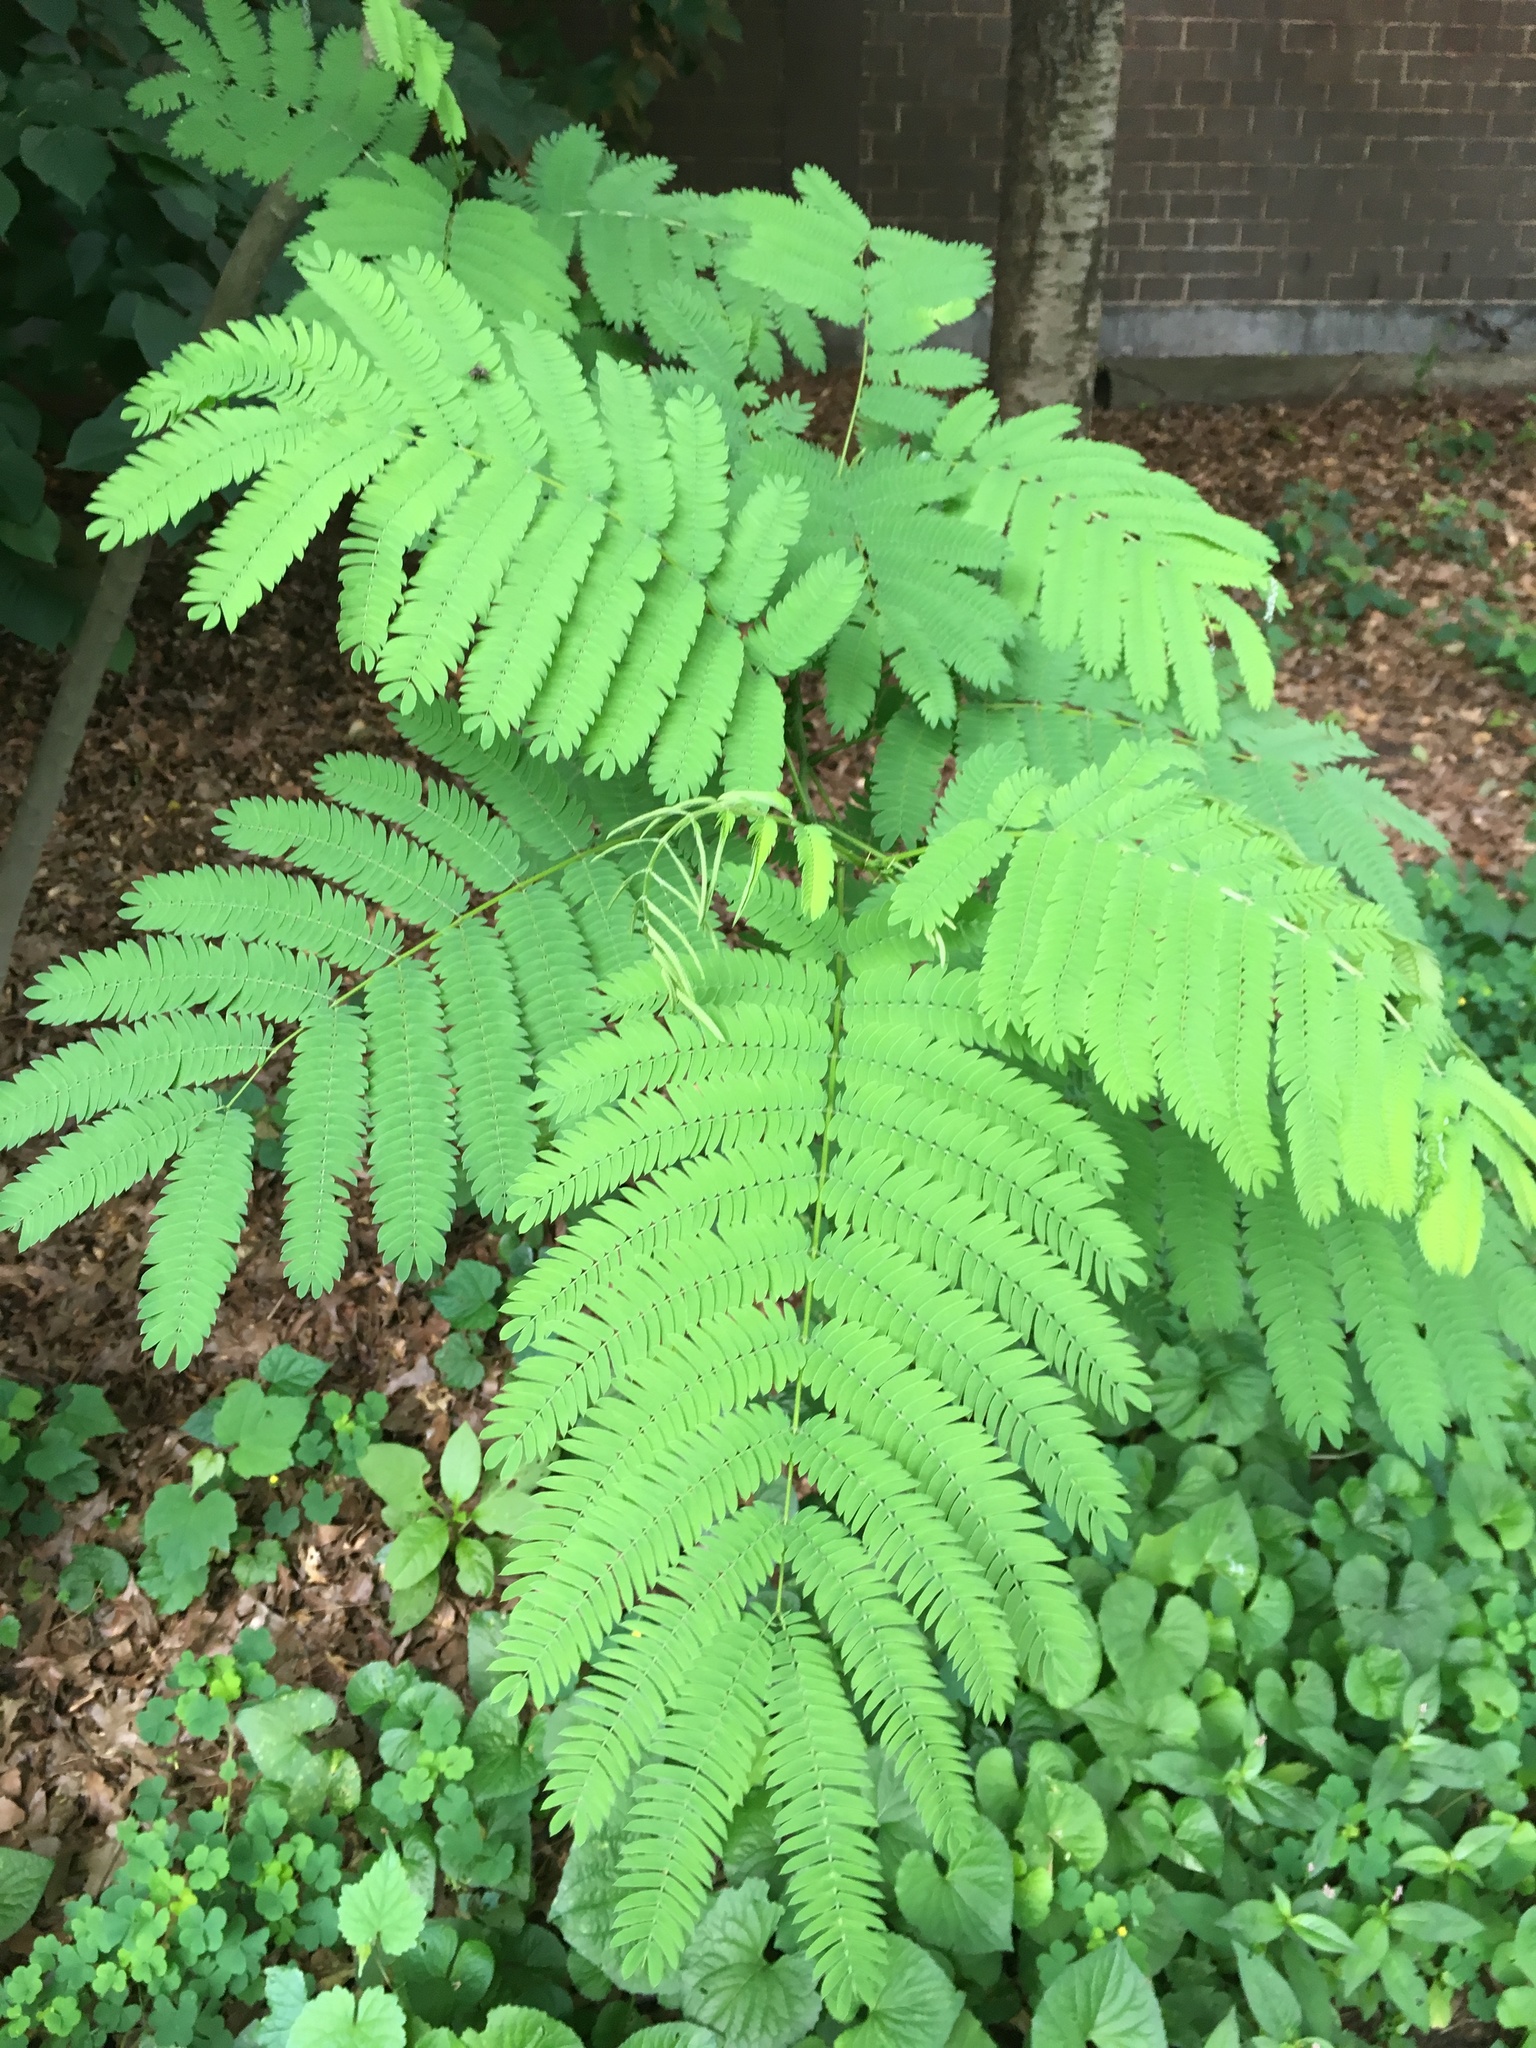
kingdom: Plantae
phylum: Tracheophyta
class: Magnoliopsida
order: Fabales
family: Fabaceae
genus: Albizia
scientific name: Albizia julibrissin
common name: Silktree
